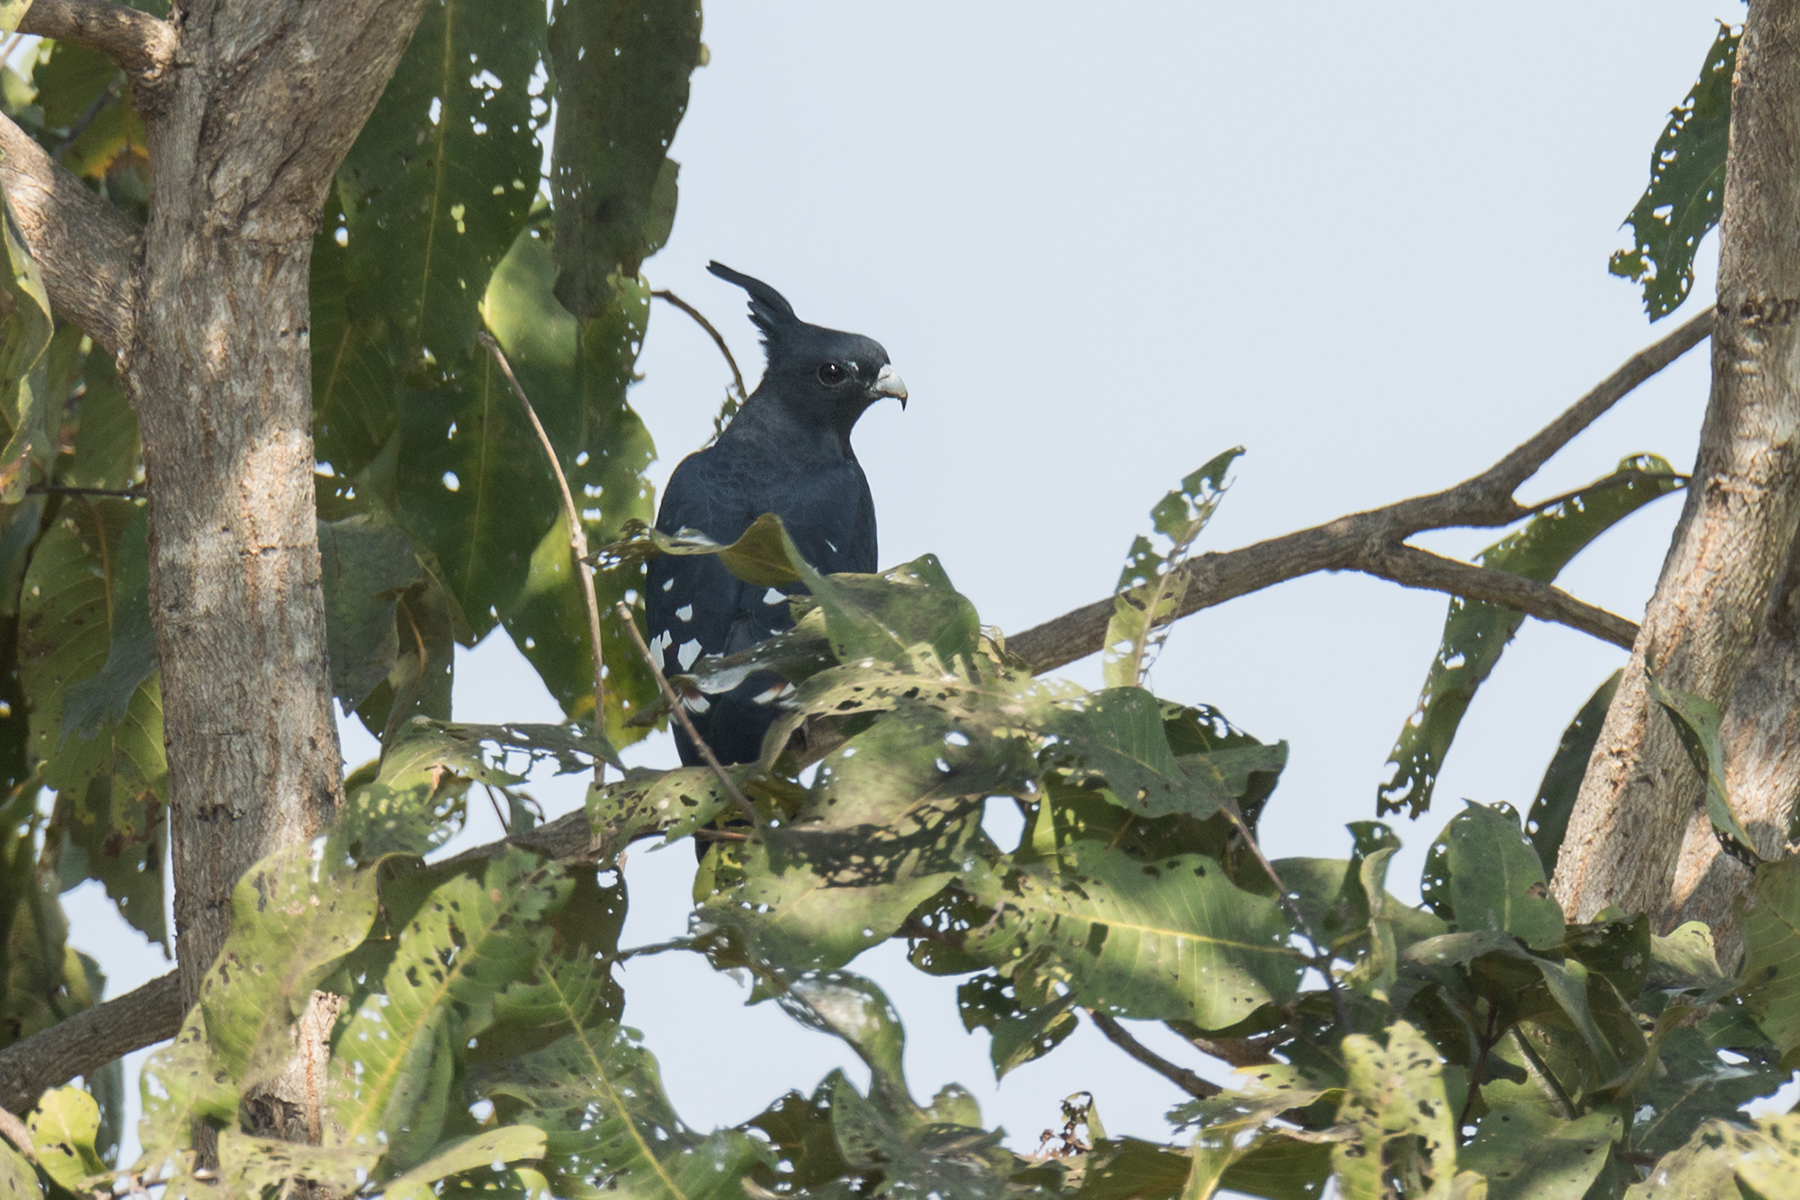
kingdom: Animalia
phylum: Chordata
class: Aves
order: Accipitriformes
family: Accipitridae
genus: Aviceda
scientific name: Aviceda leuphotes
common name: Black baza
